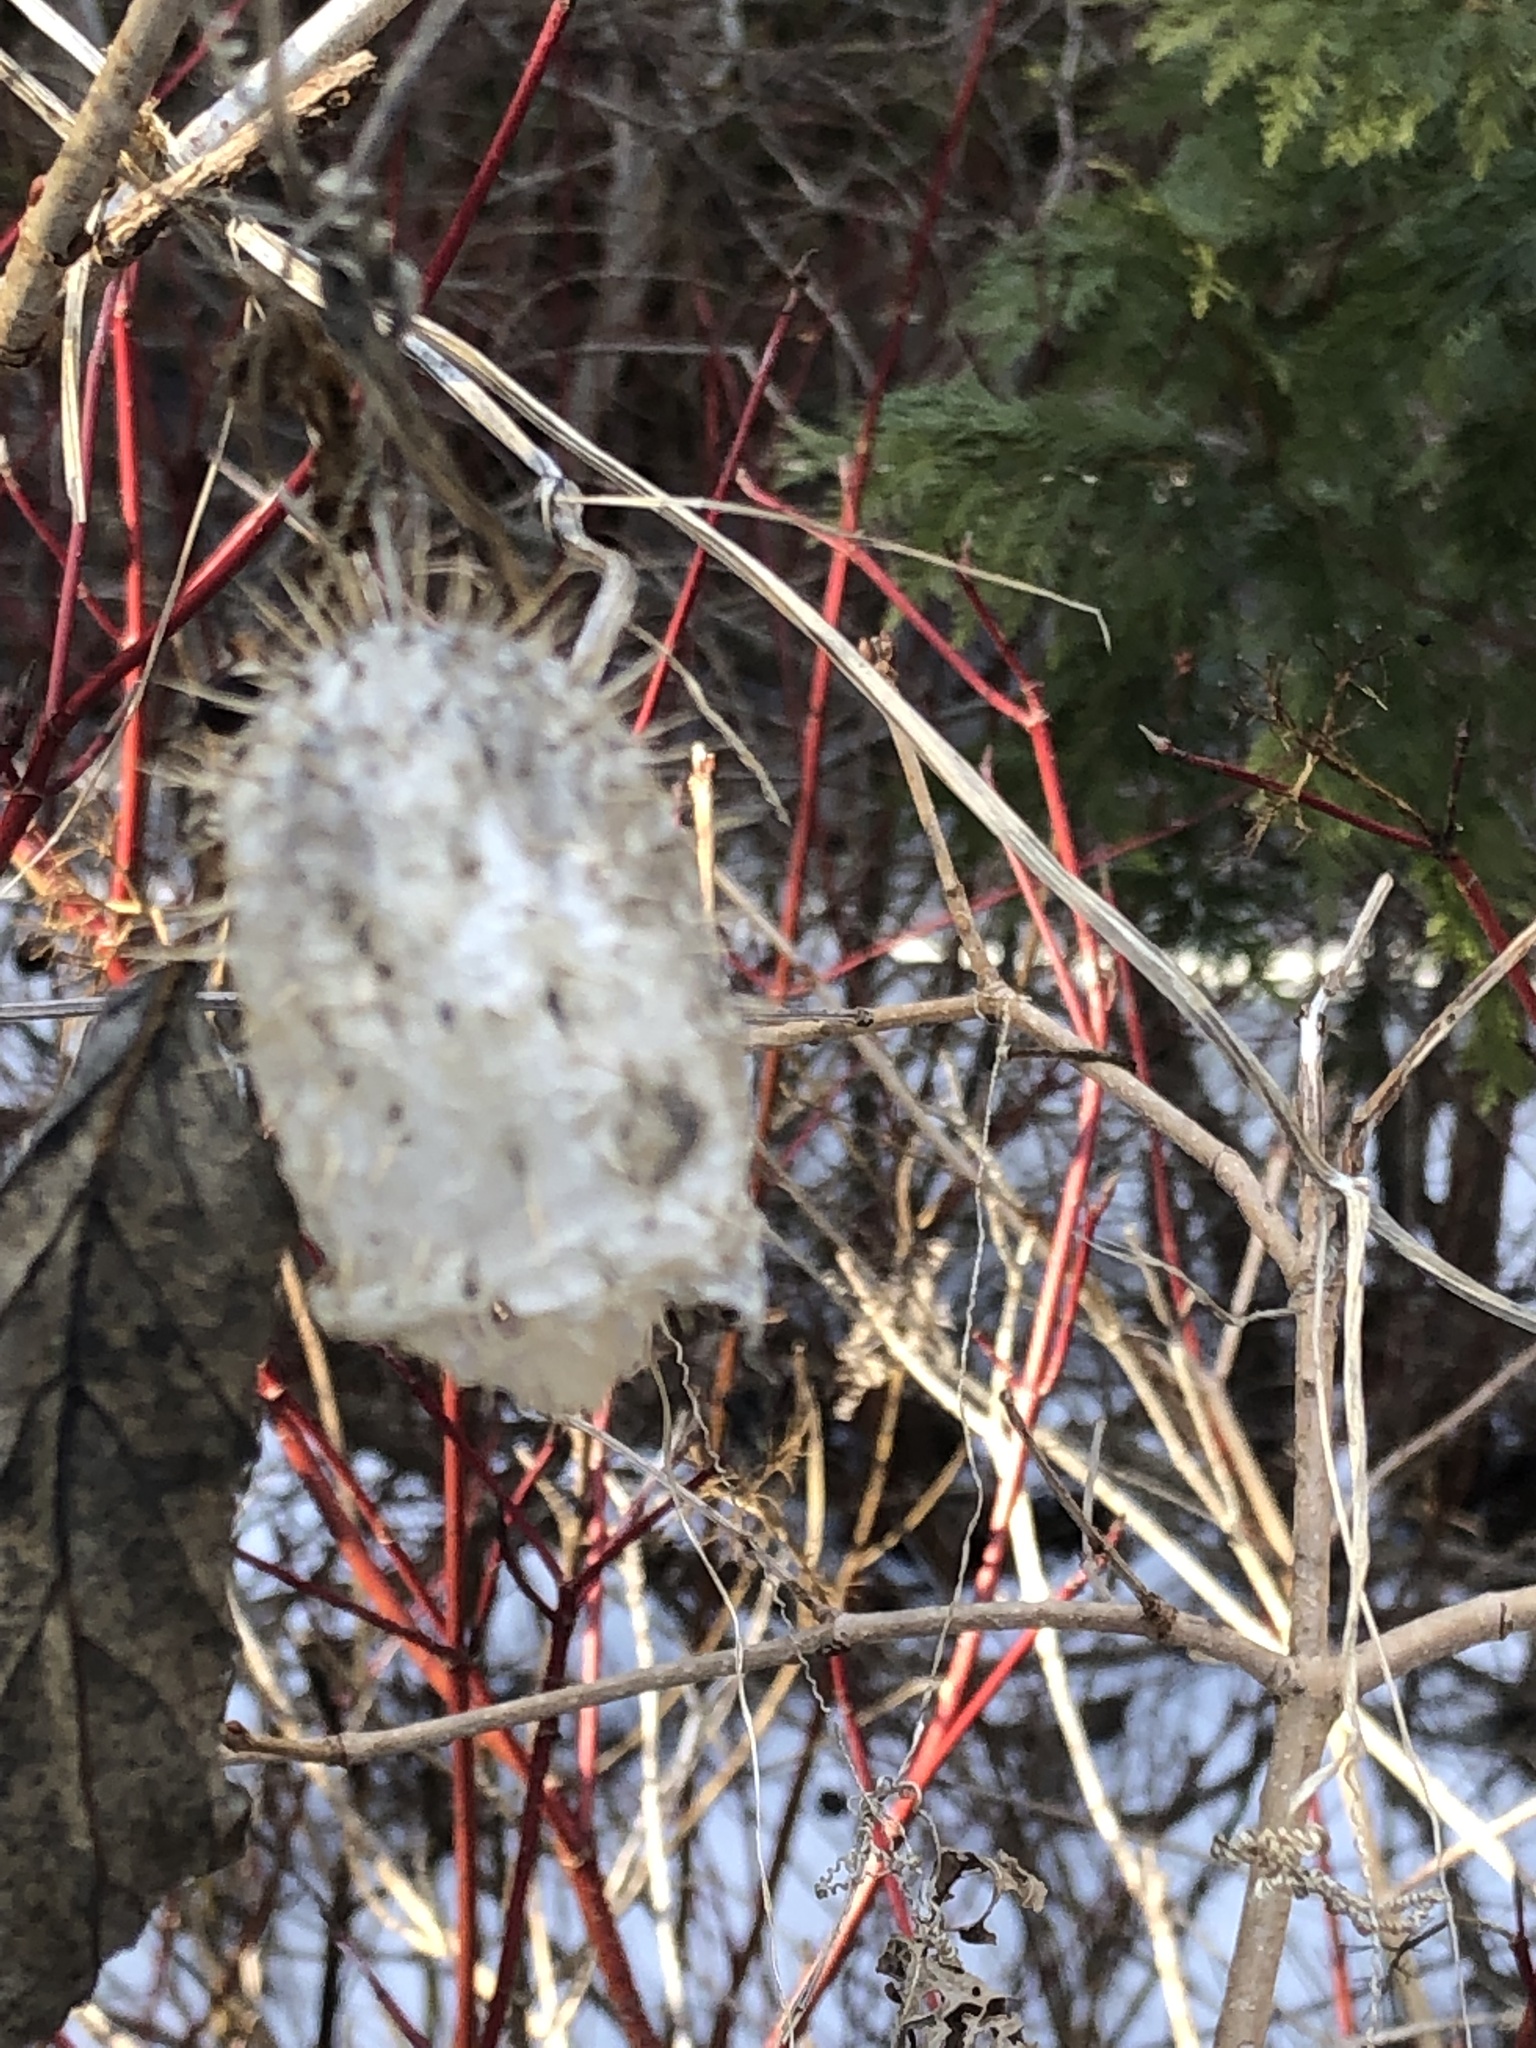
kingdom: Plantae
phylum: Tracheophyta
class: Magnoliopsida
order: Cucurbitales
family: Cucurbitaceae
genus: Echinocystis
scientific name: Echinocystis lobata
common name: Wild cucumber
